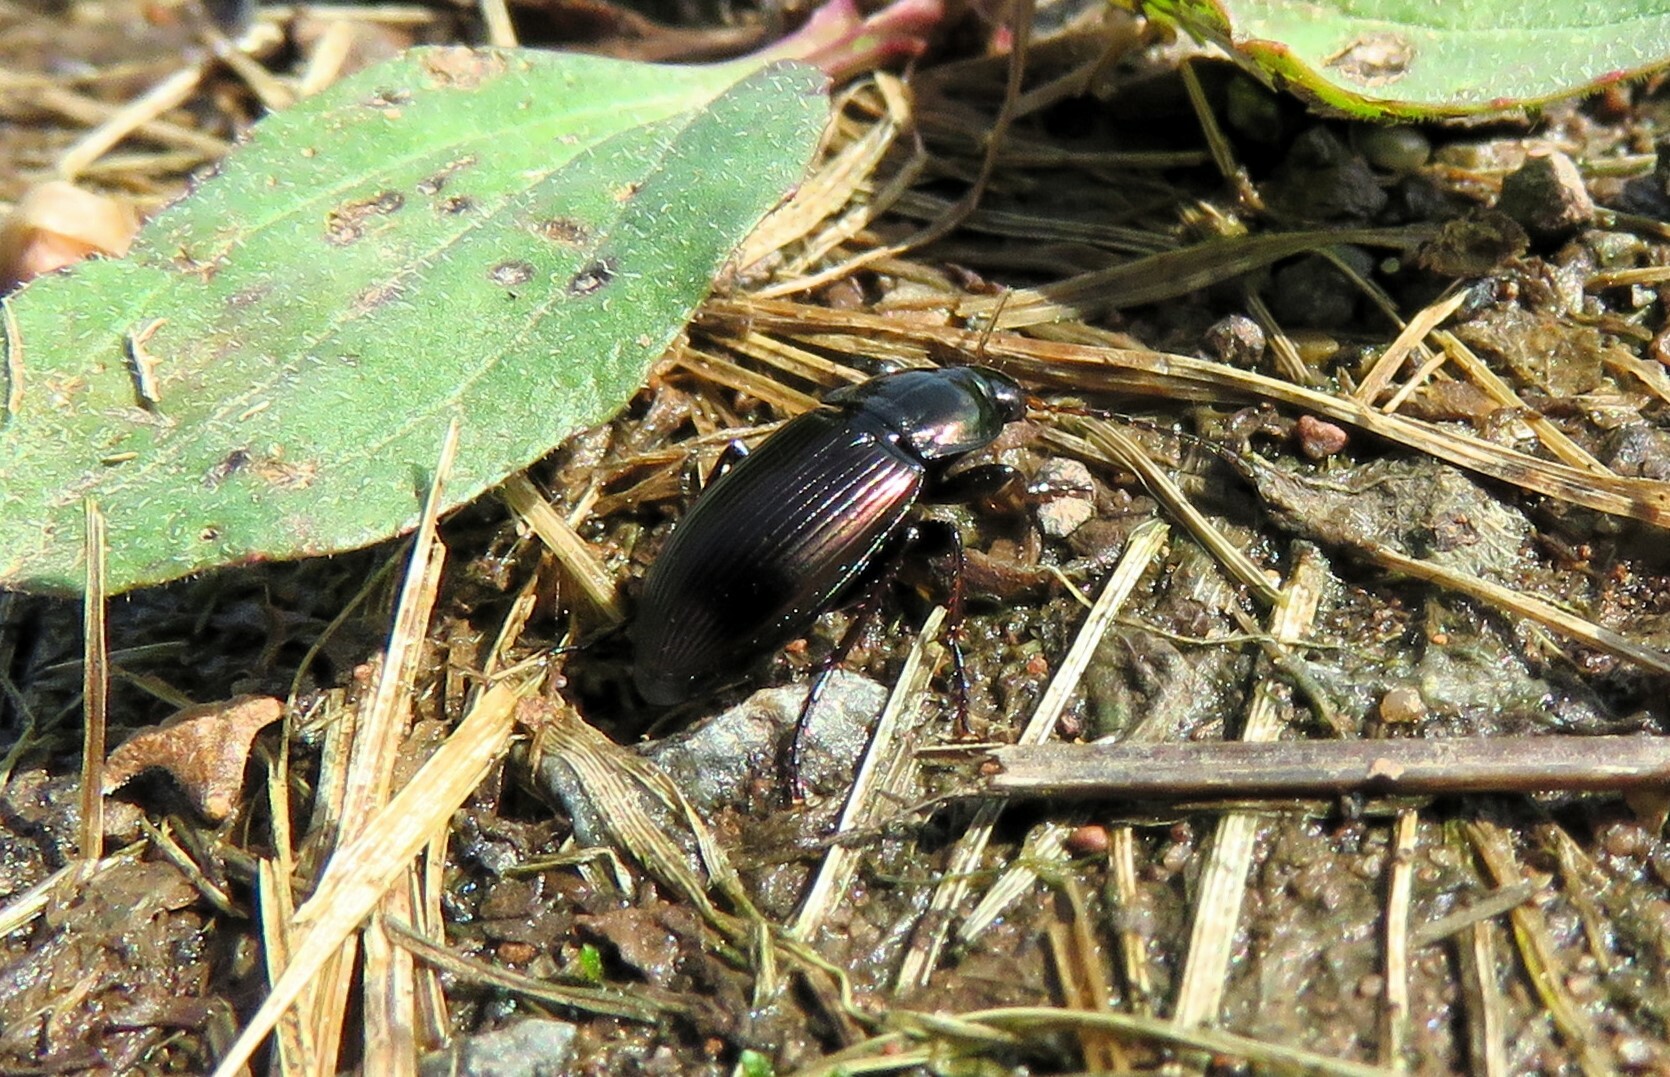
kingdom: Animalia
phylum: Arthropoda
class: Insecta
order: Coleoptera
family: Carabidae
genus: Poecilus
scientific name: Poecilus lucublandus
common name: Woodland ground beetle
